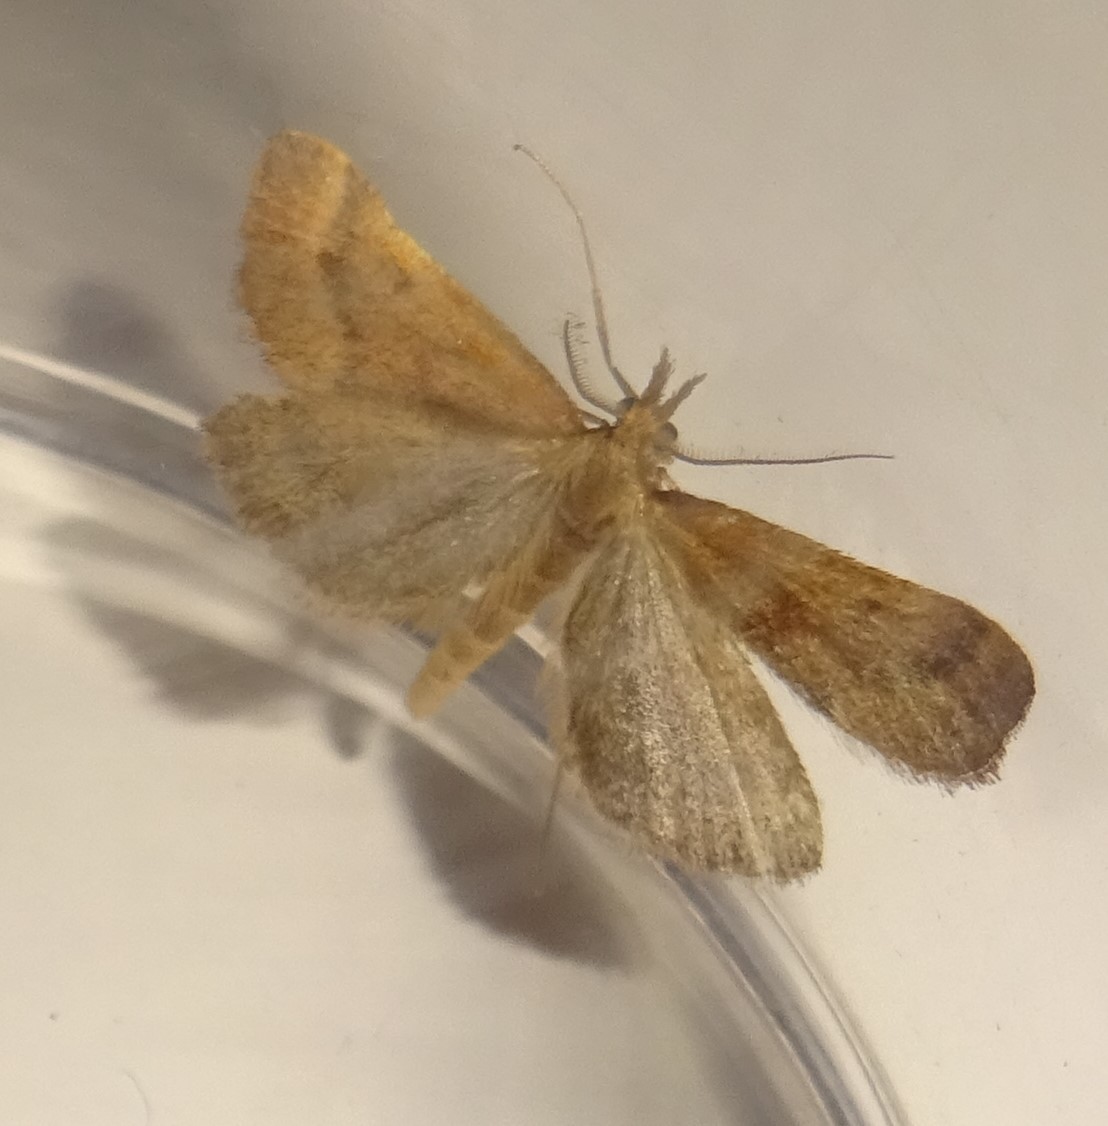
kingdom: Animalia
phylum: Arthropoda
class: Insecta
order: Lepidoptera
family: Pyralidae
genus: Synaphe
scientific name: Synaphe punctalis
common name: Long-legged tabby
